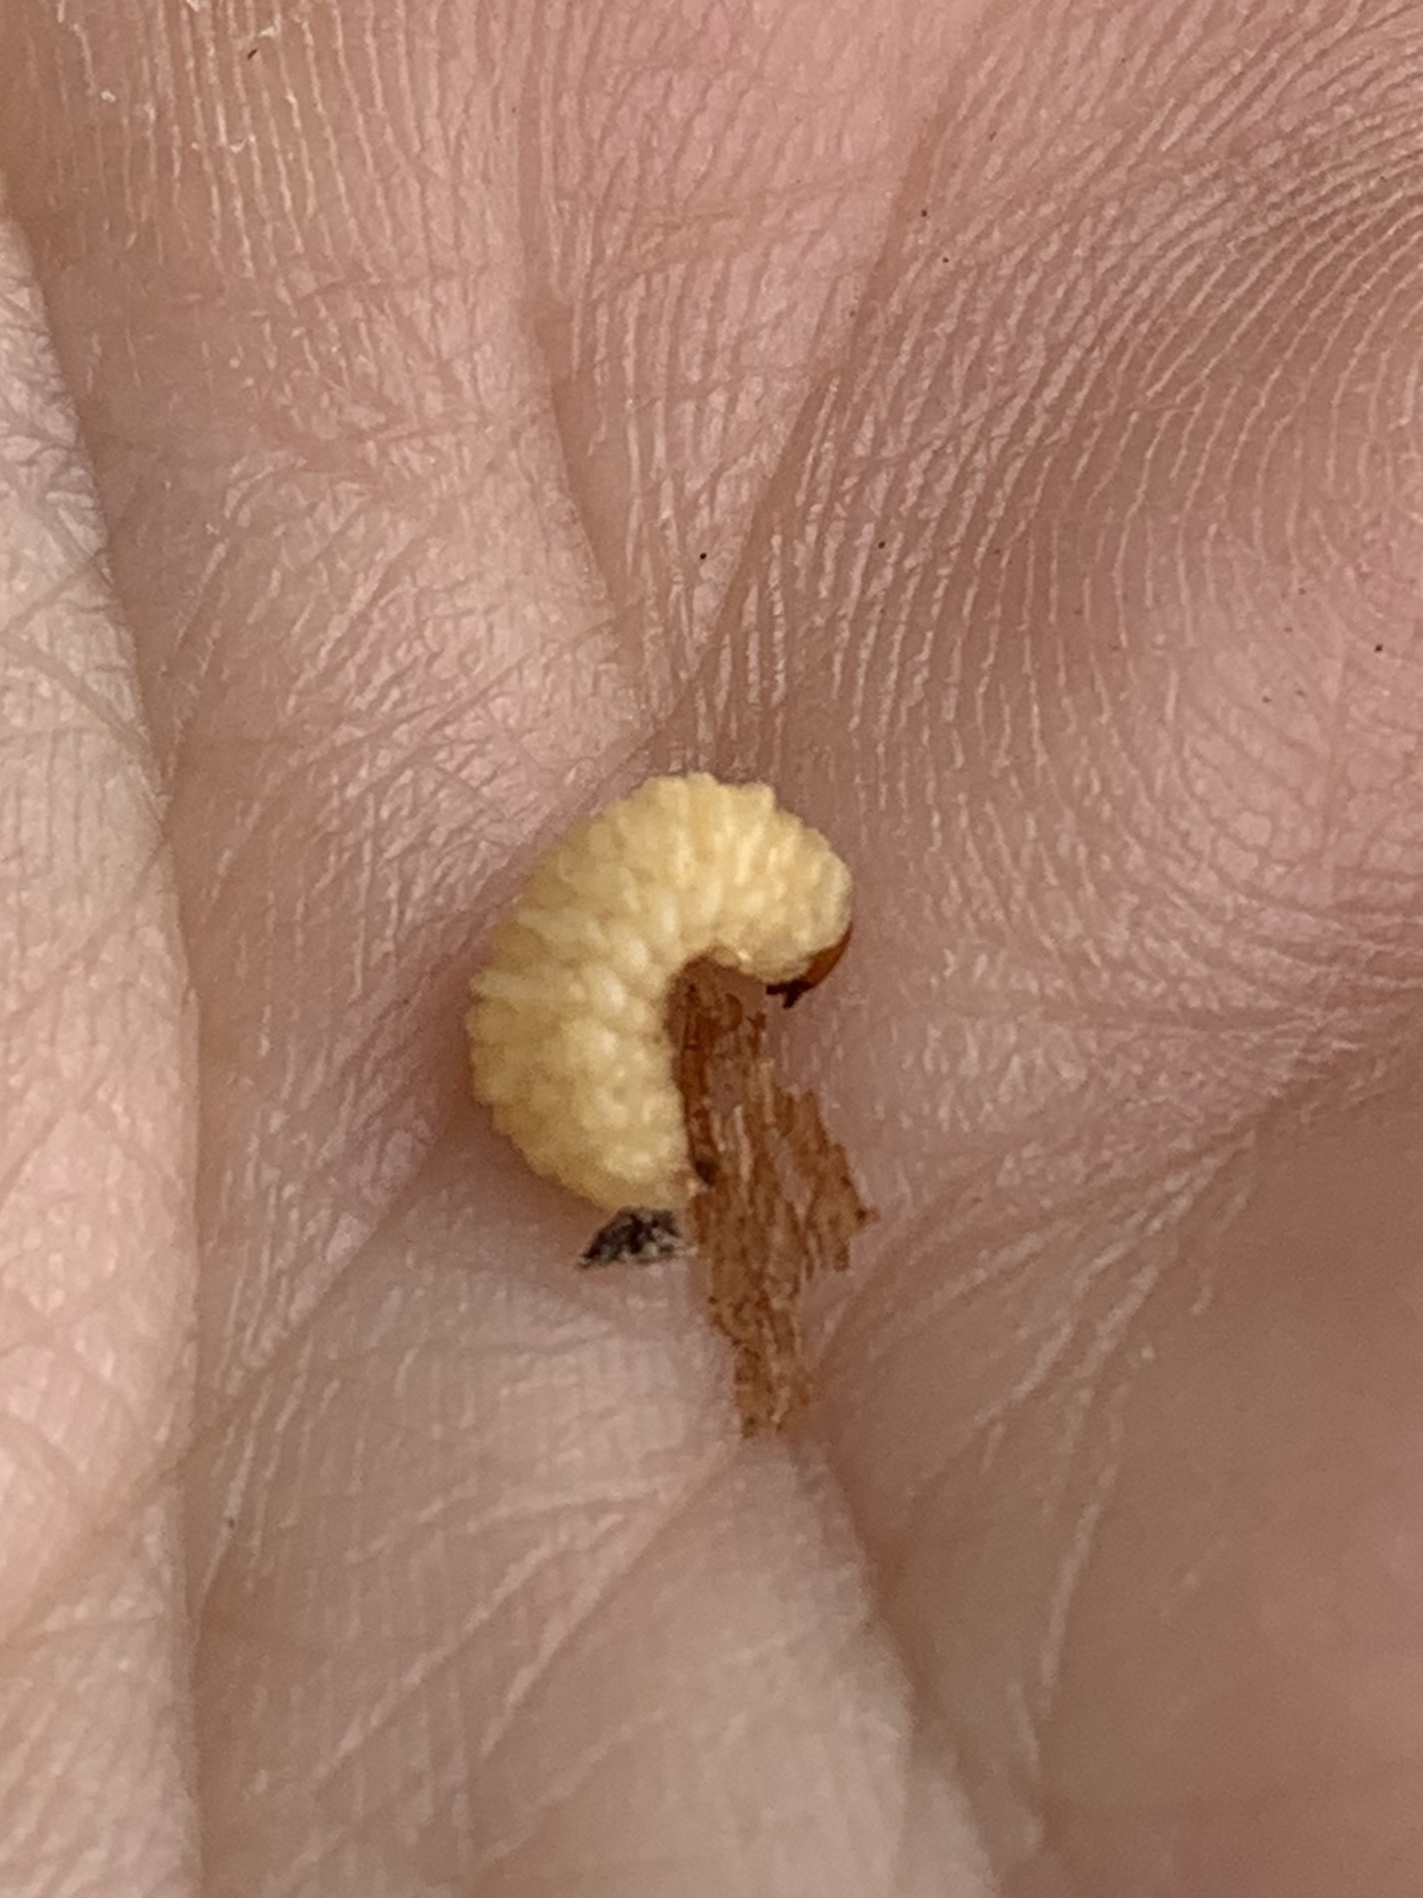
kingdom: Animalia
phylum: Arthropoda
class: Insecta
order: Coleoptera
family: Eurhynchidae
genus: Eurhinus
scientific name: Eurhinus magnificus
